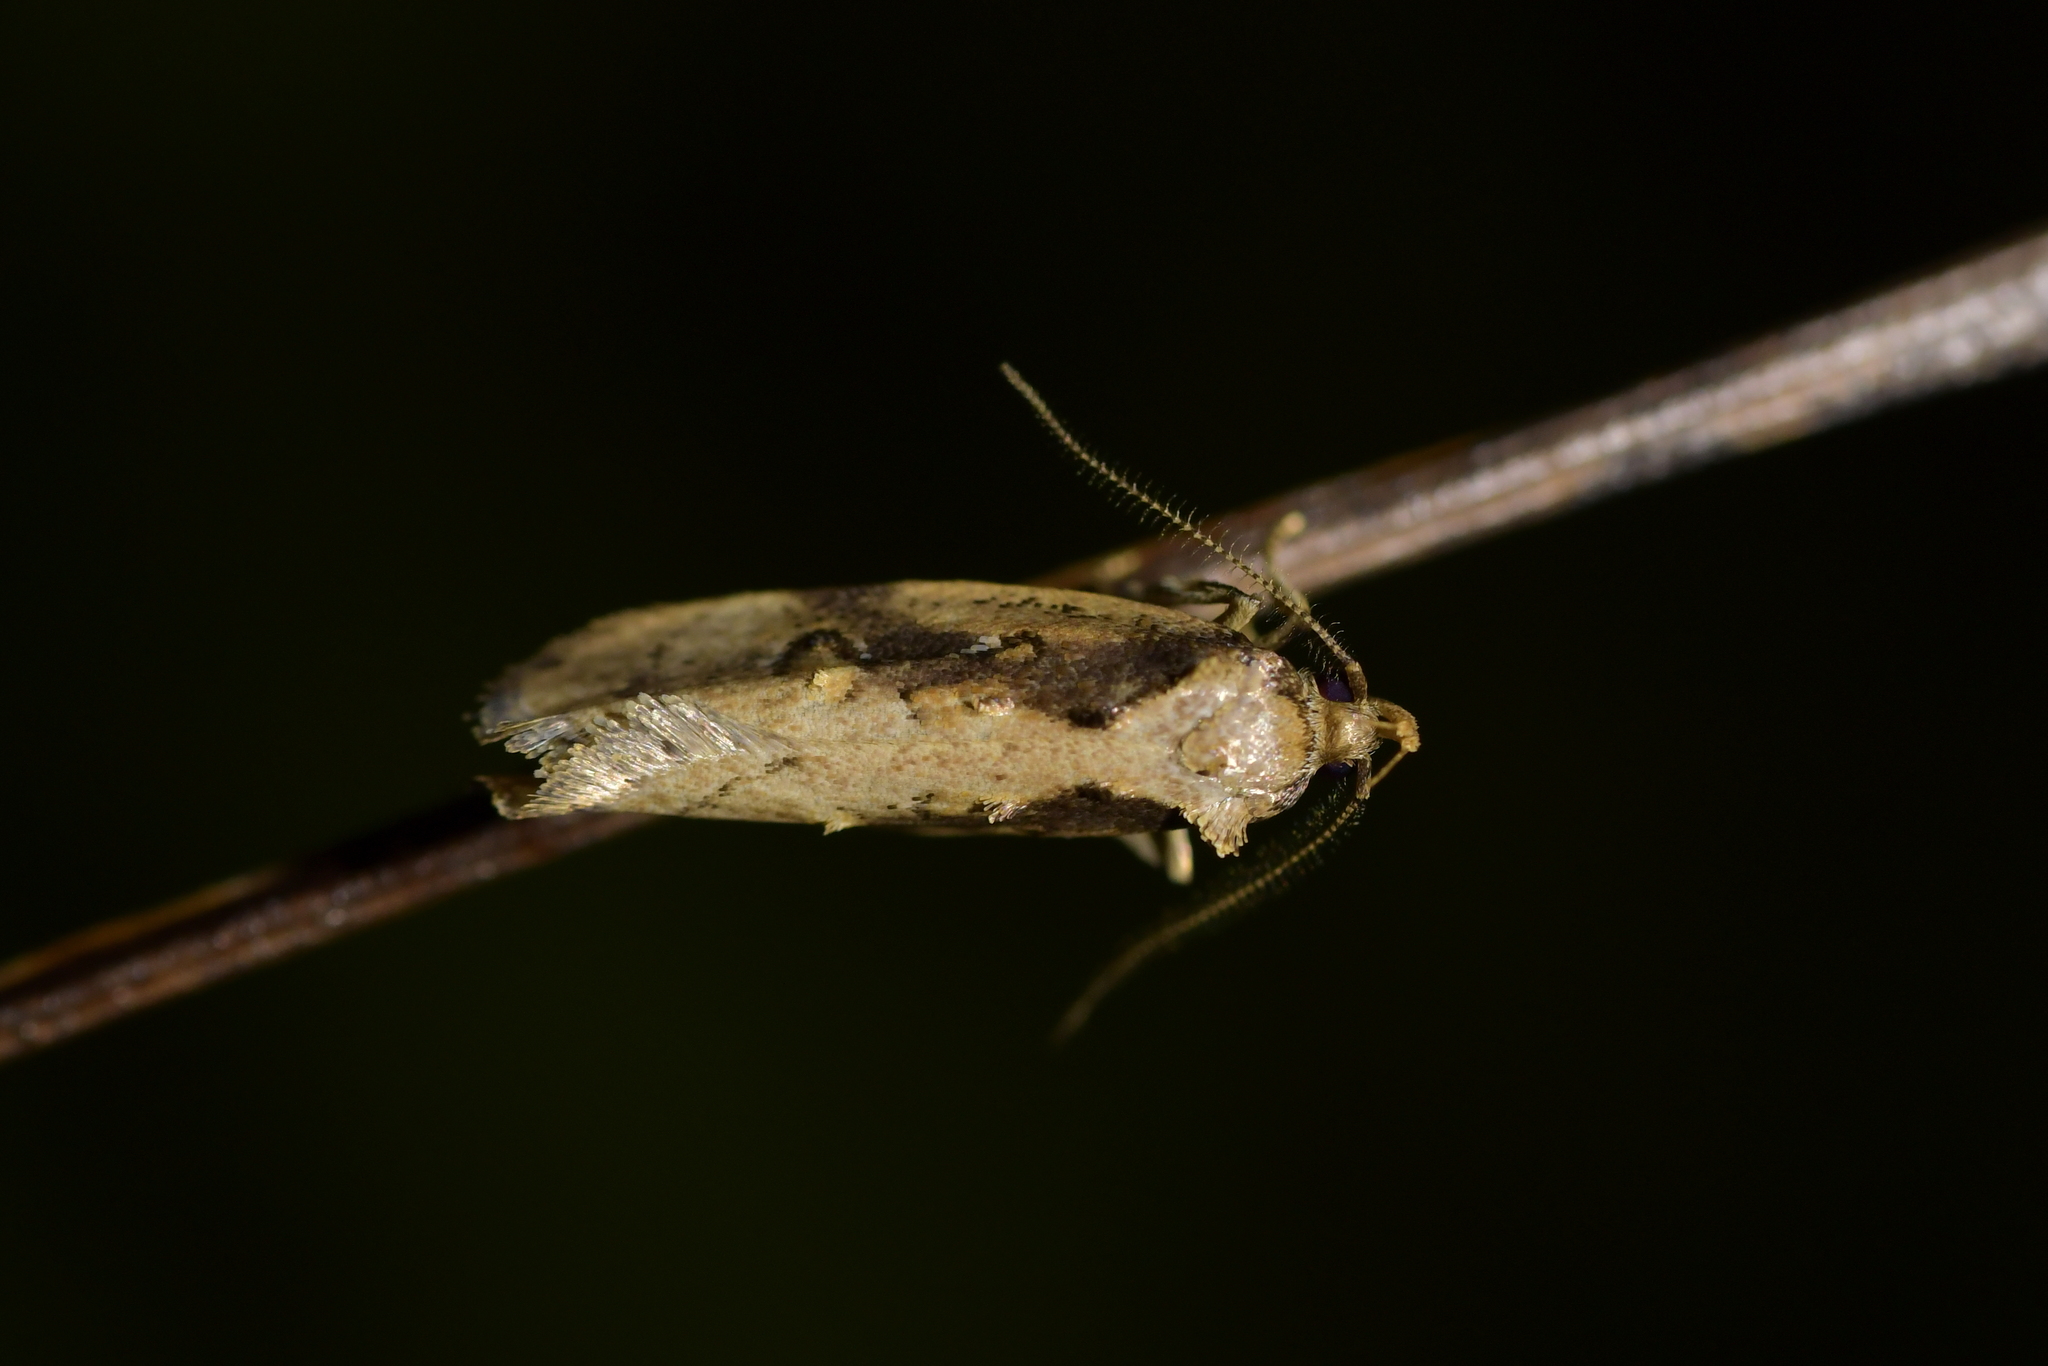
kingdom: Animalia
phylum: Arthropoda
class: Insecta
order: Lepidoptera
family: Oecophoridae
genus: Atomotricha
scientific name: Atomotricha isogama
